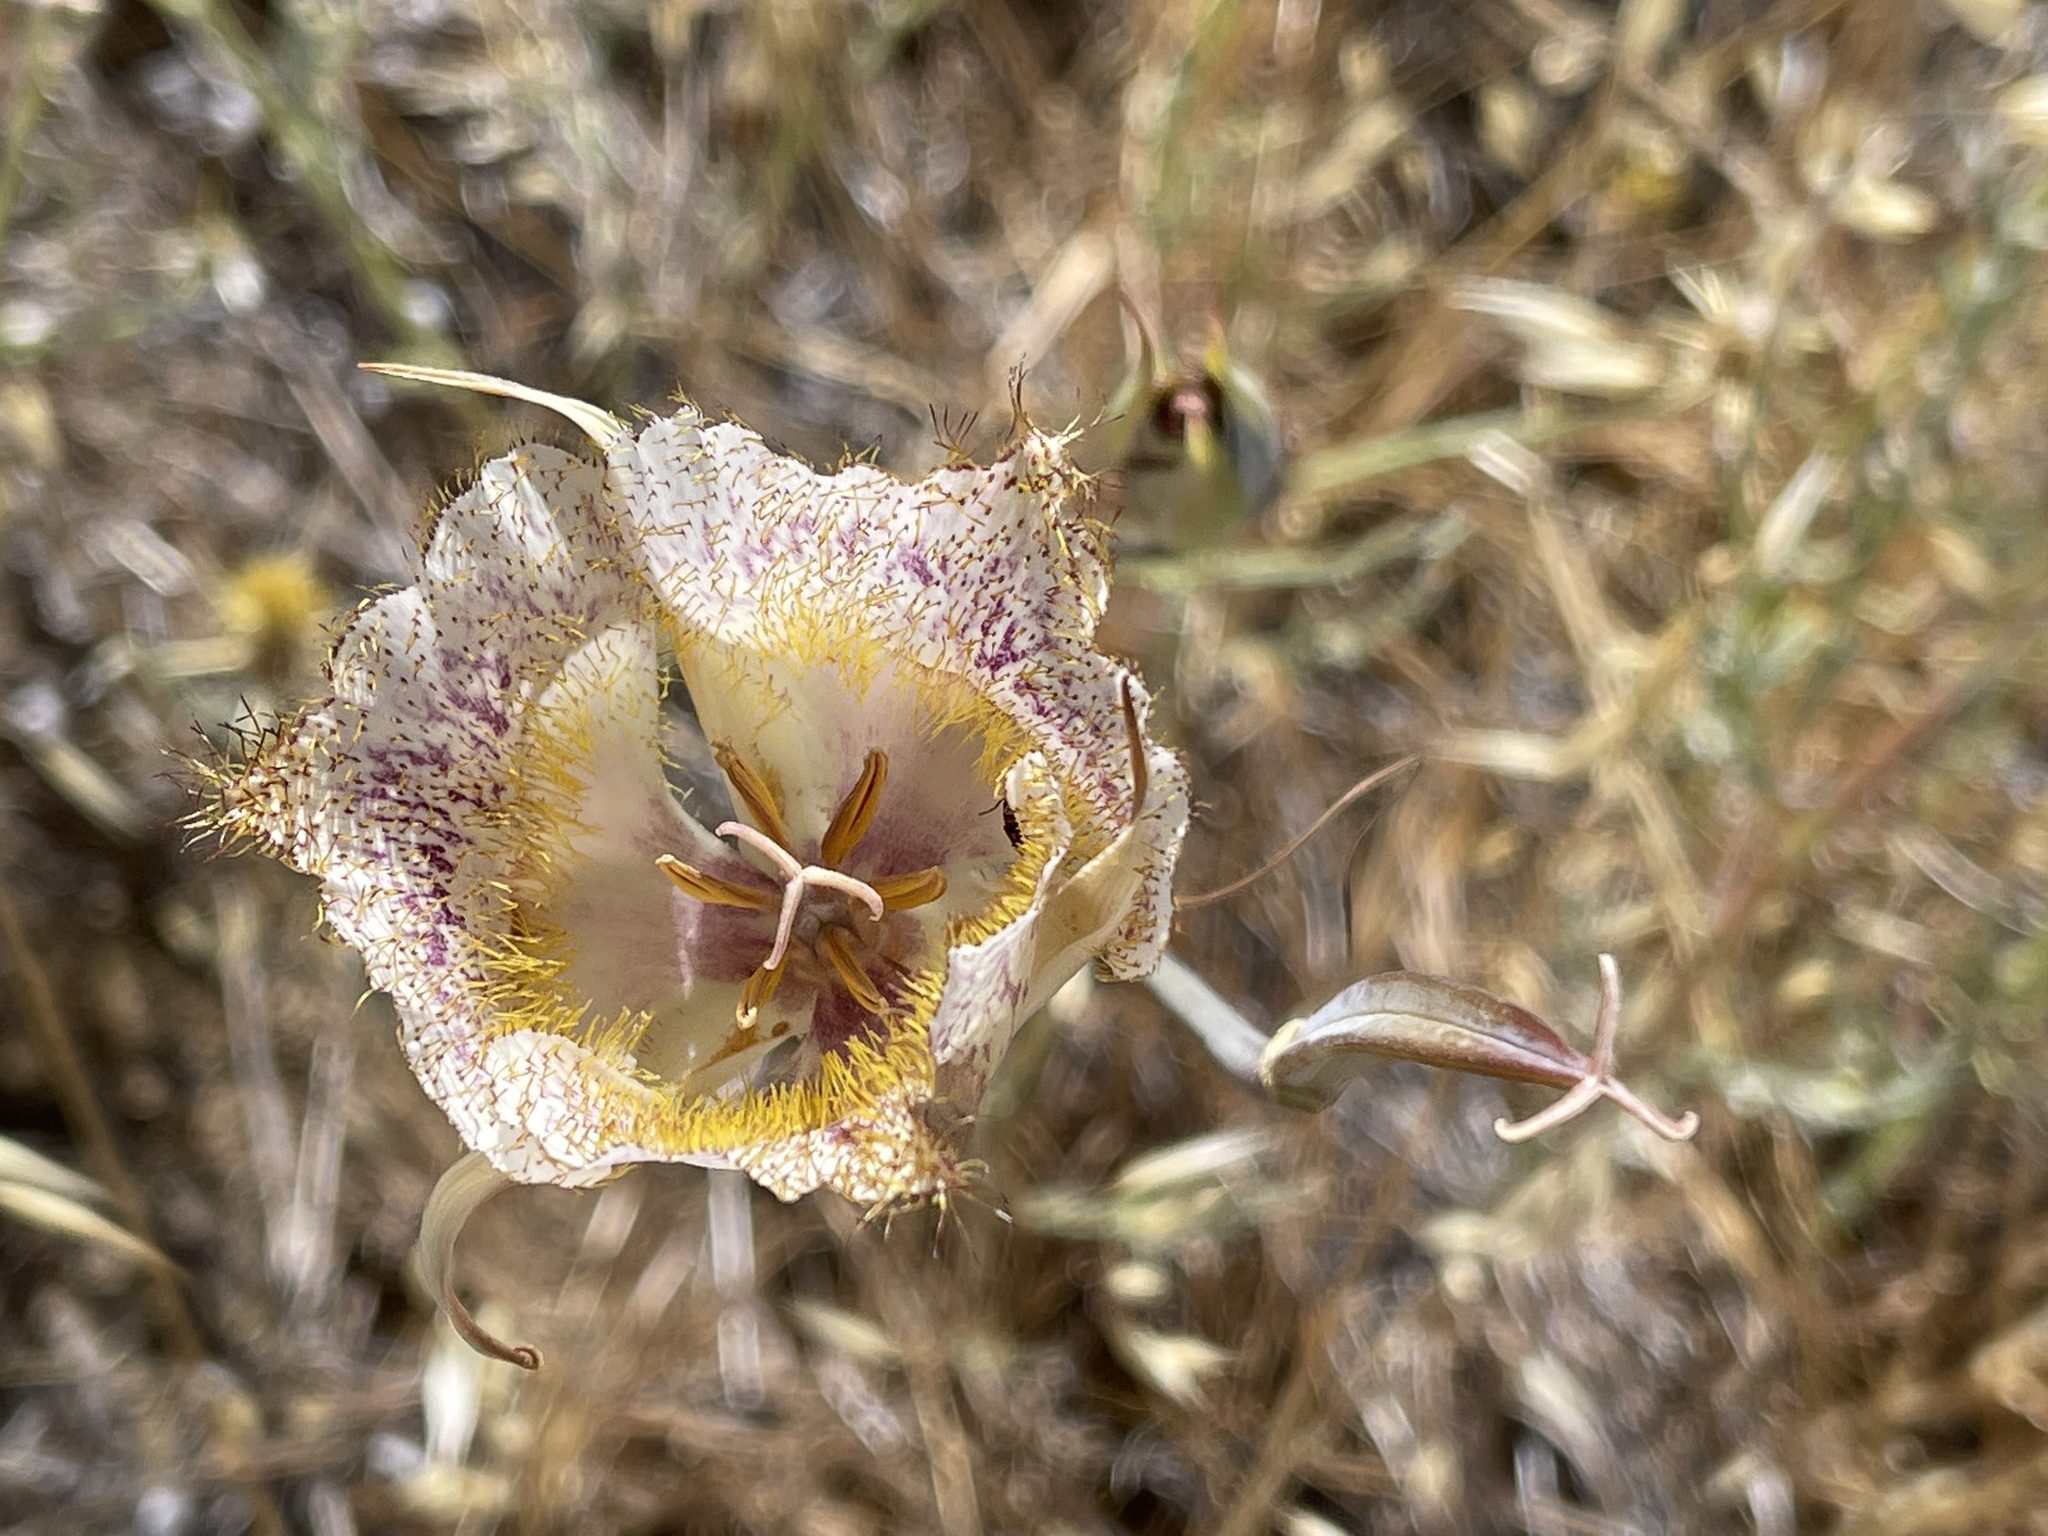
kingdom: Plantae
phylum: Tracheophyta
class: Liliopsida
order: Liliales
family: Liliaceae
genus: Calochortus
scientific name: Calochortus fimbriatus
